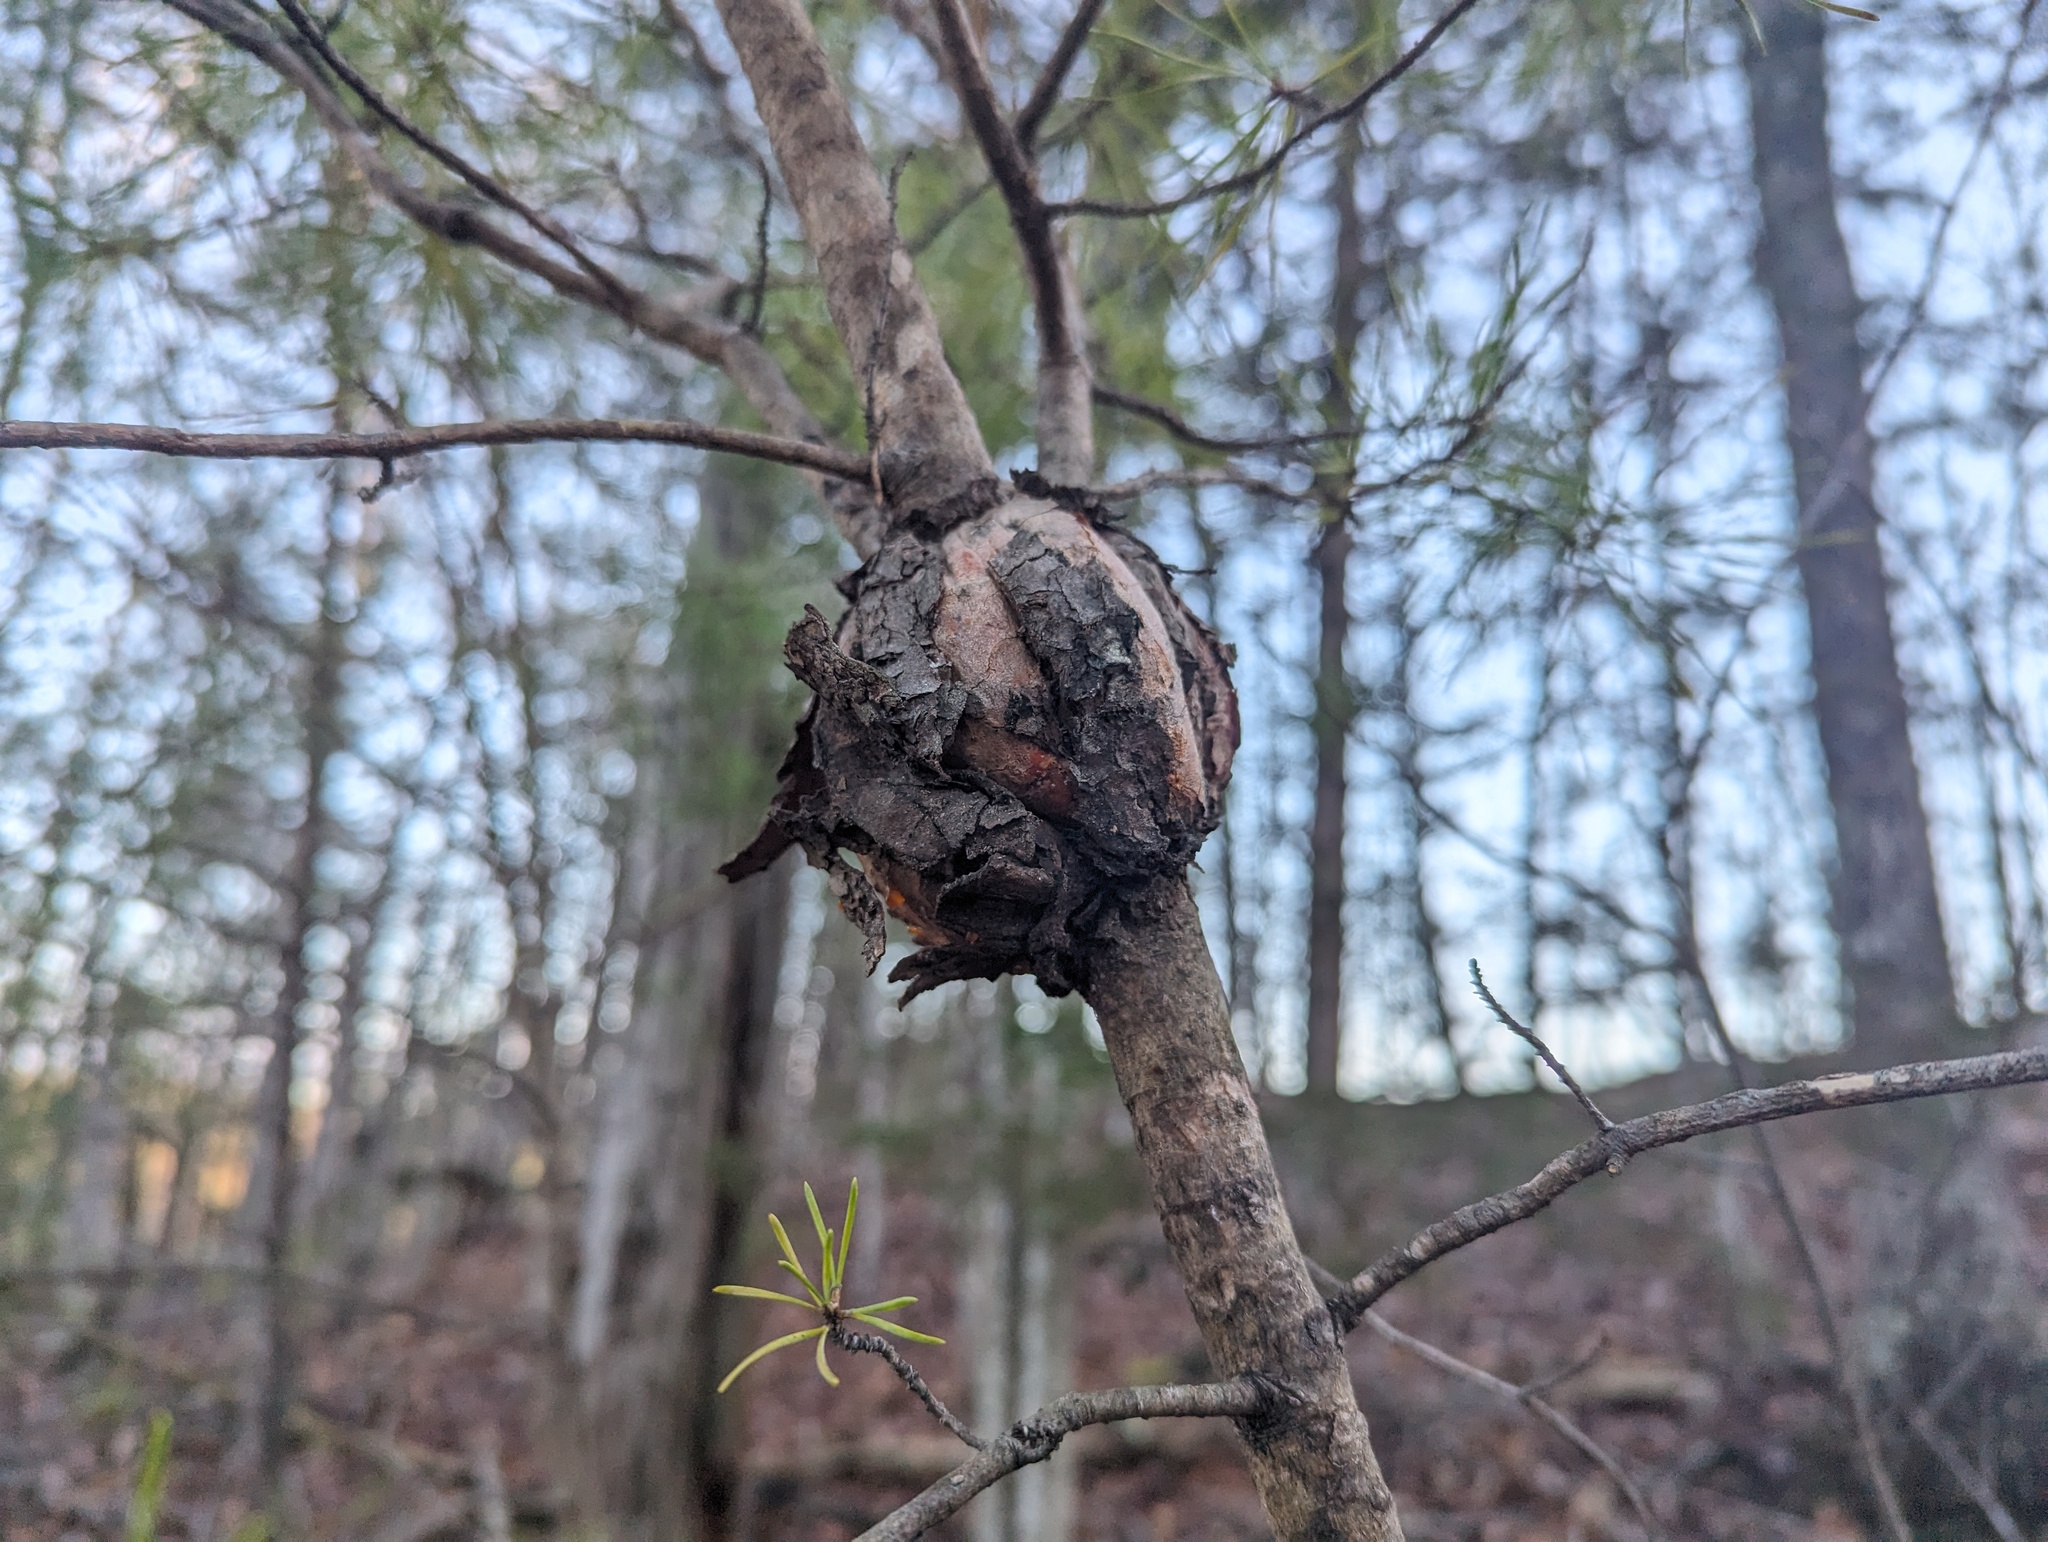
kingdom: Fungi
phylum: Basidiomycota
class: Pucciniomycetes
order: Pucciniales
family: Cronartiaceae
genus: Cronartium
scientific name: Cronartium quercuum
